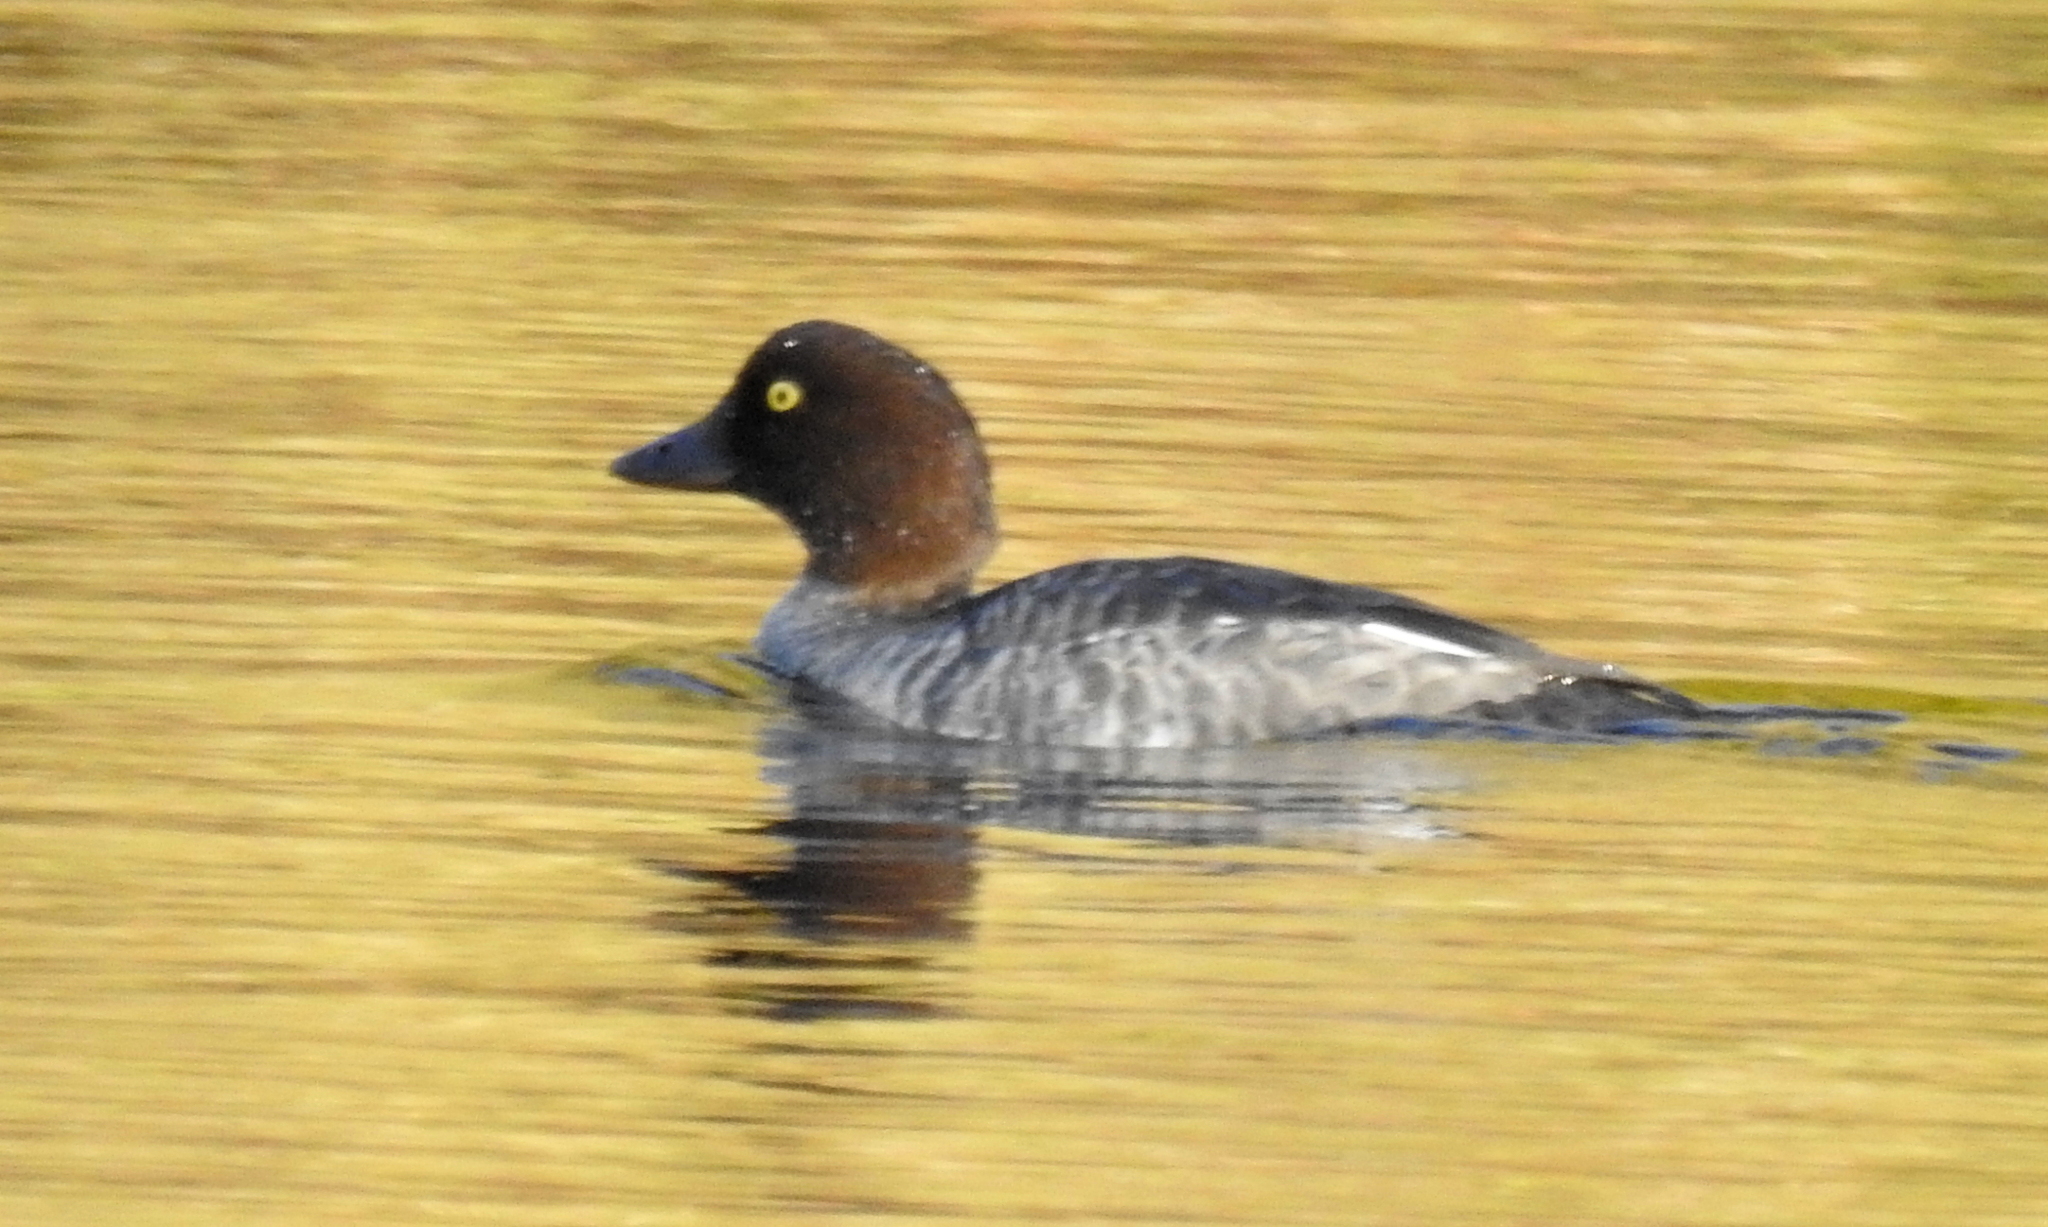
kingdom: Animalia
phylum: Chordata
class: Aves
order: Anseriformes
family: Anatidae
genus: Bucephala
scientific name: Bucephala clangula
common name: Common goldeneye
